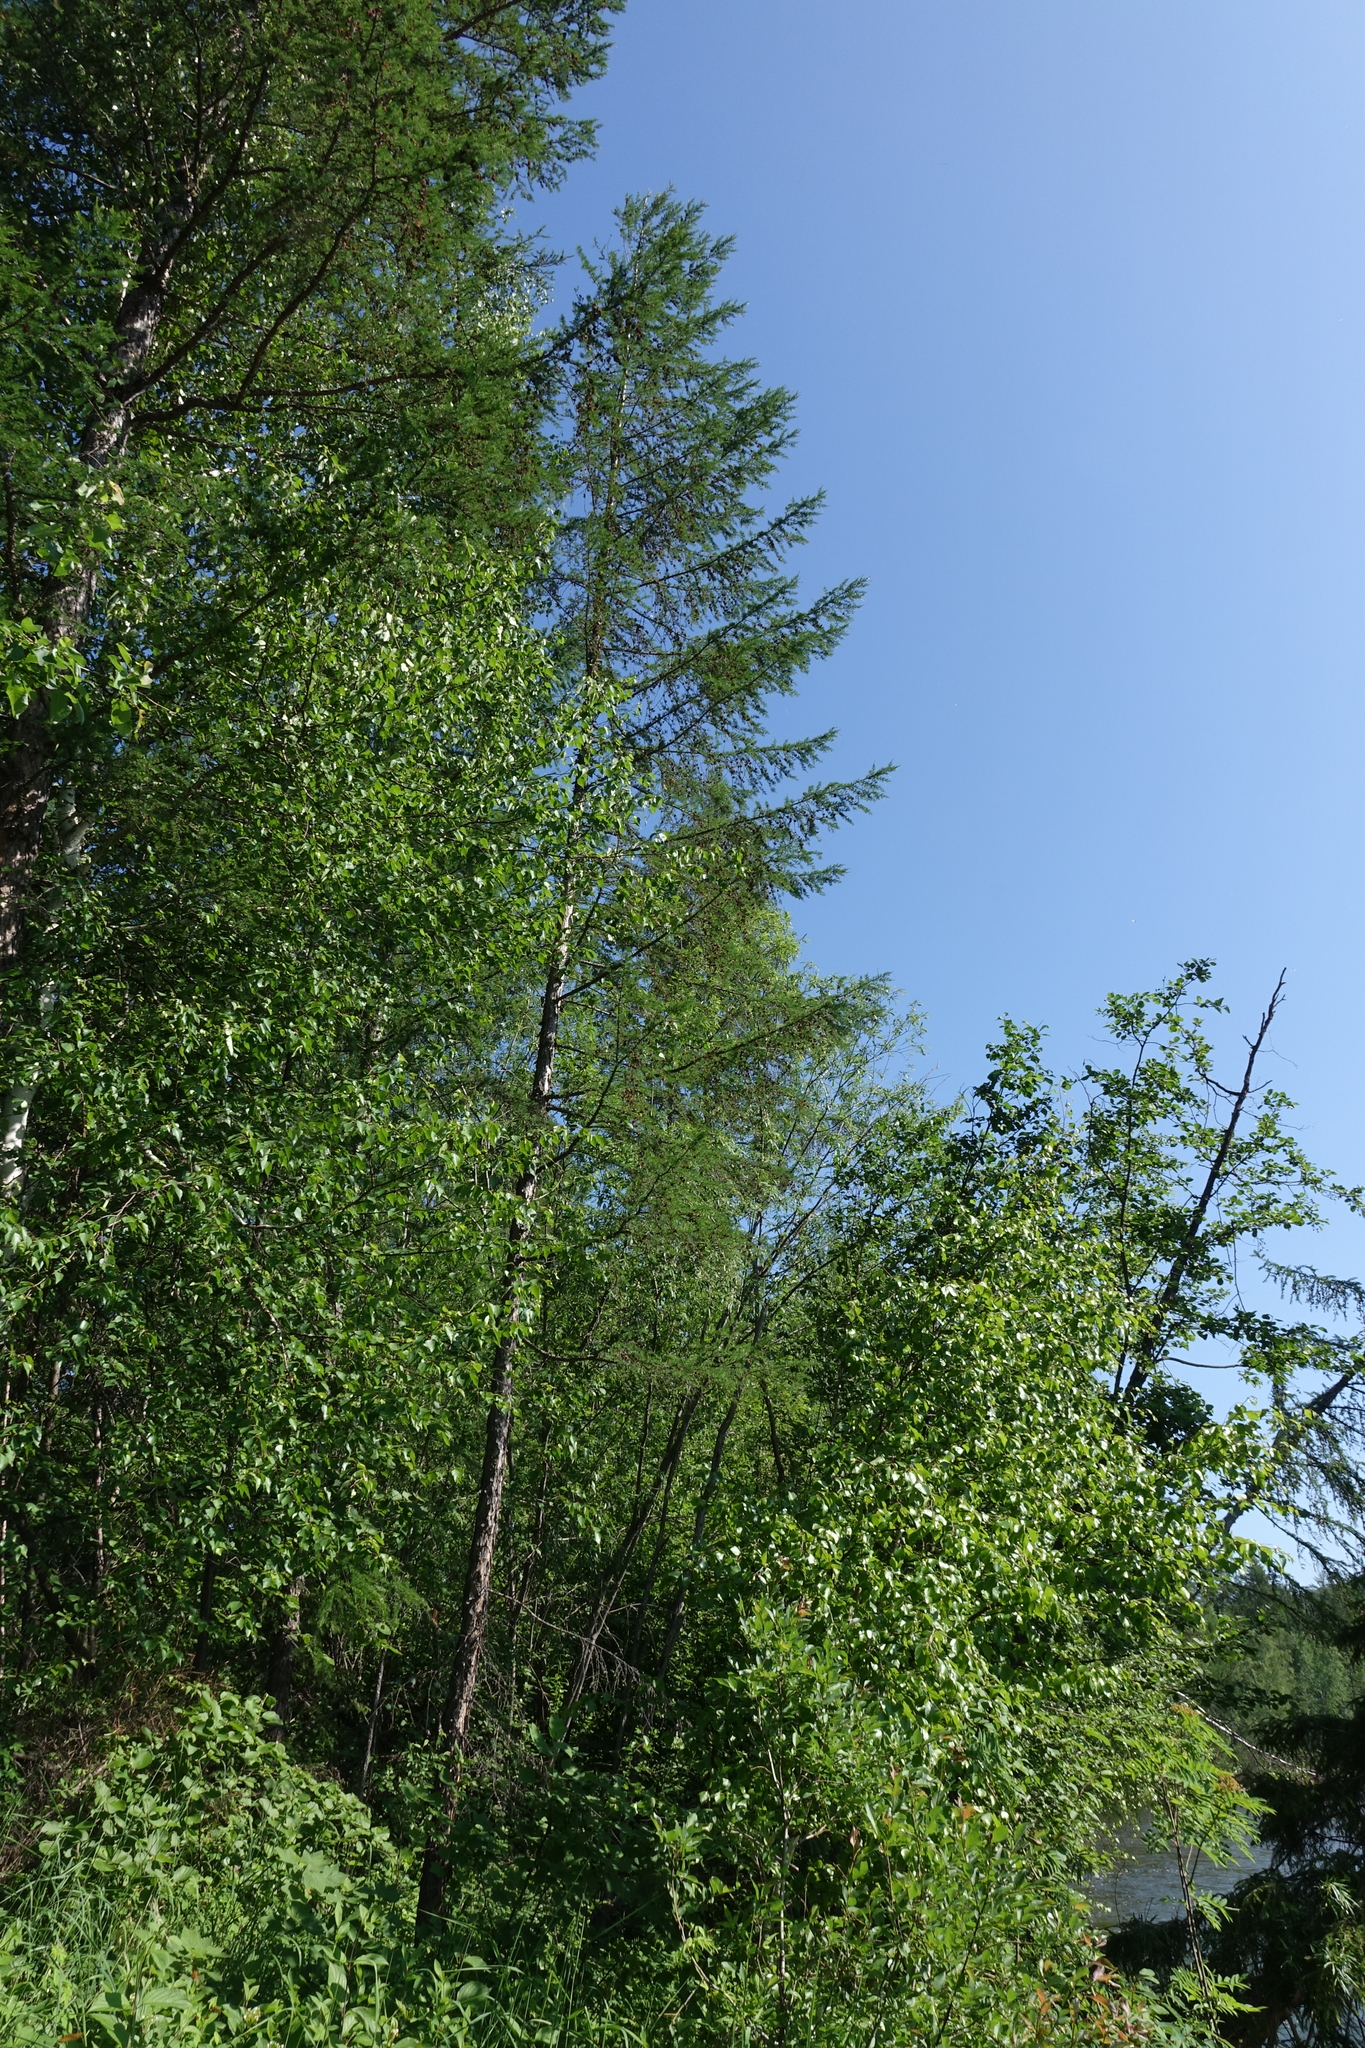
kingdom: Plantae
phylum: Tracheophyta
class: Pinopsida
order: Pinales
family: Pinaceae
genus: Larix
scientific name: Larix gmelinii
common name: Dahurian larch
